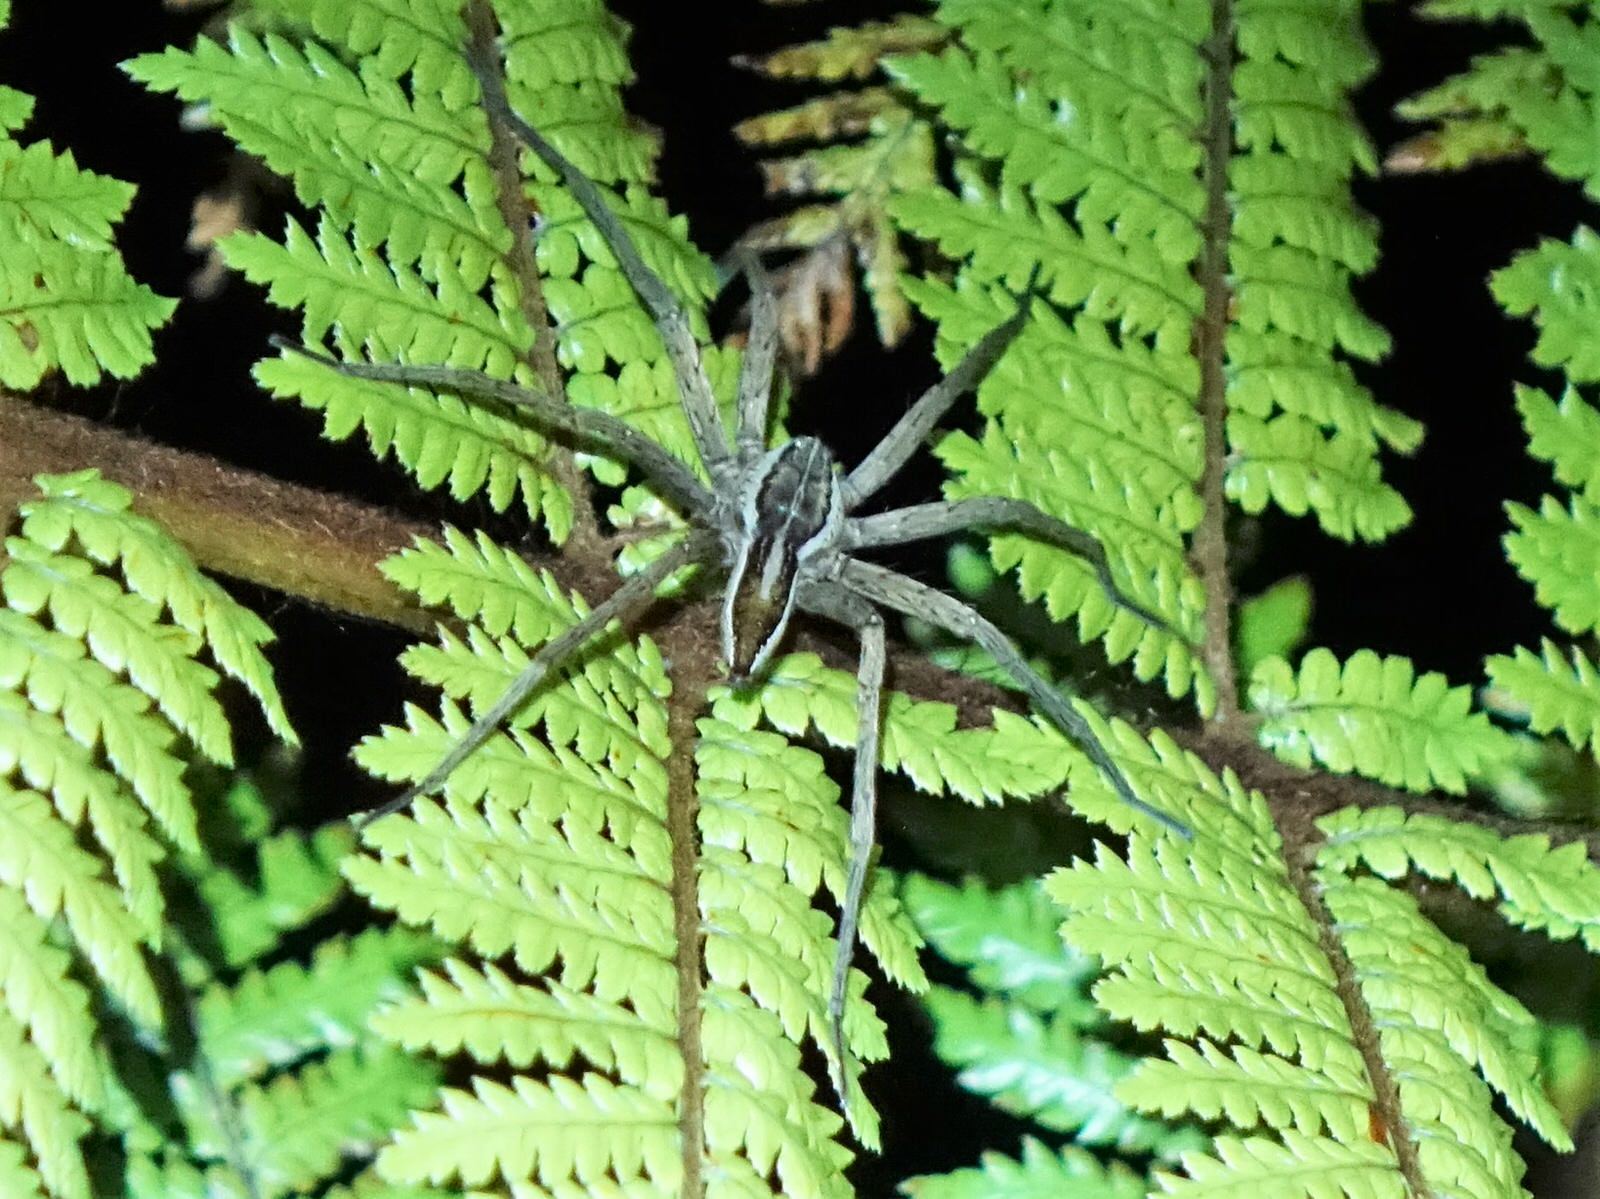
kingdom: Animalia
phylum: Arthropoda
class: Arachnida
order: Araneae
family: Pisauridae
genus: Dolomedes
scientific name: Dolomedes minor
